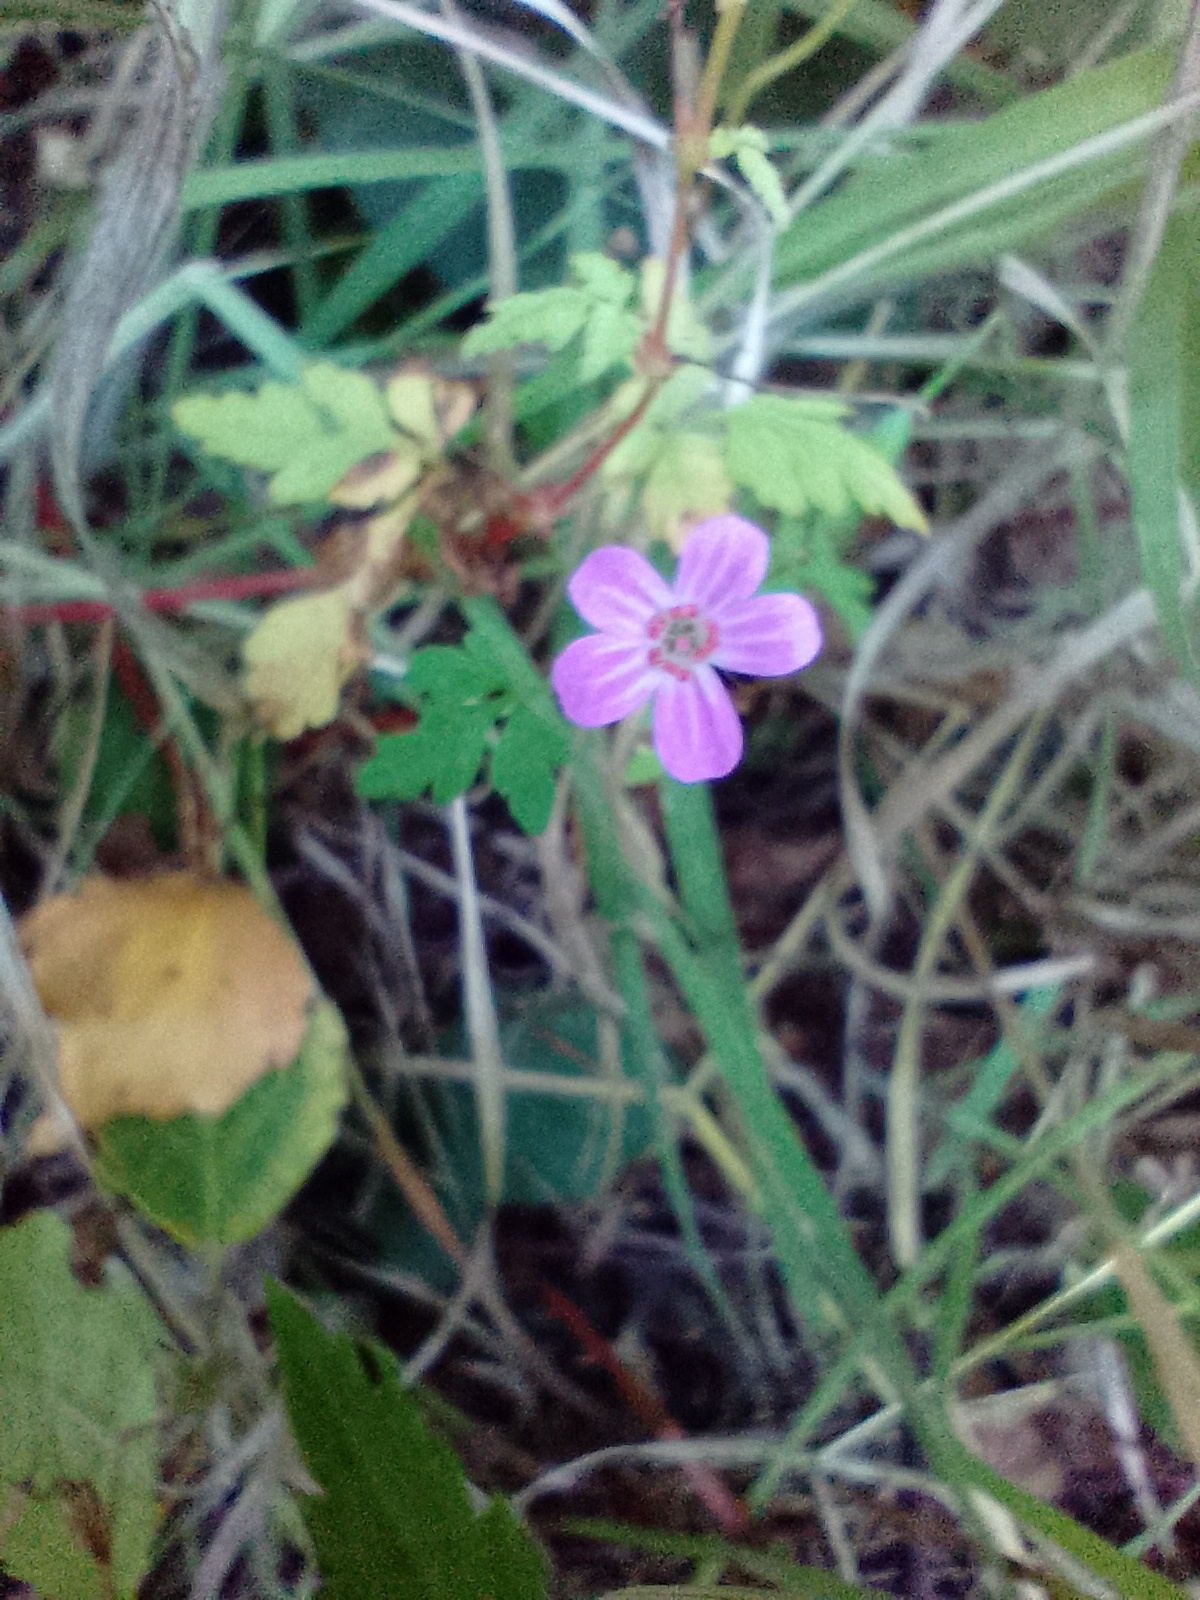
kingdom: Plantae
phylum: Tracheophyta
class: Magnoliopsida
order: Geraniales
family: Geraniaceae
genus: Geranium
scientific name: Geranium robertianum
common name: Herb-robert
